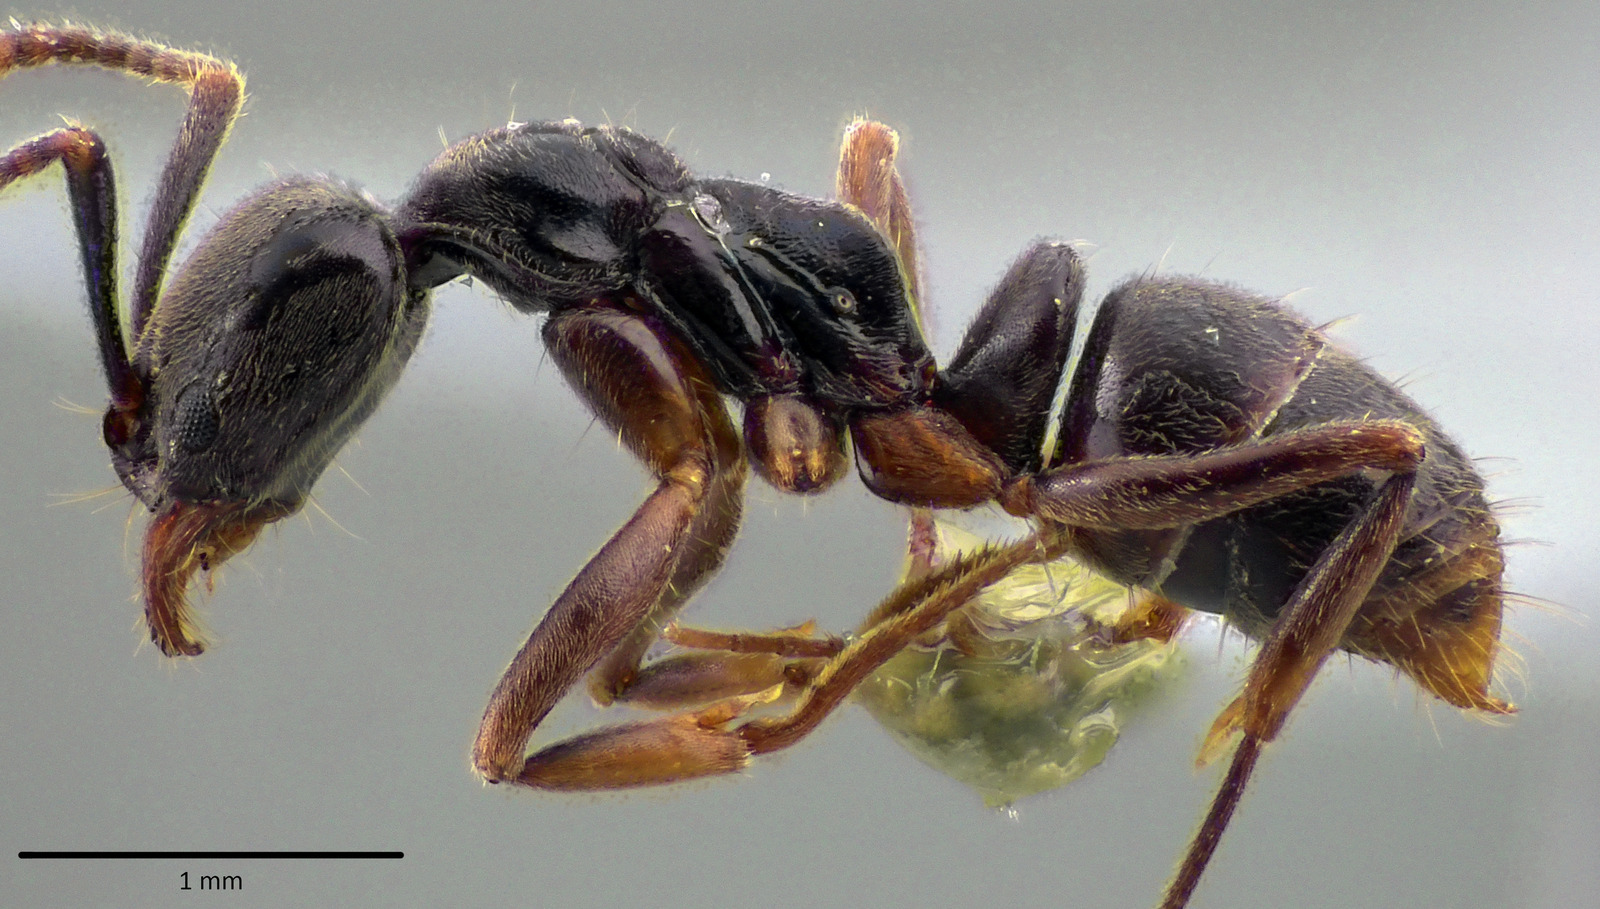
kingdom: Animalia
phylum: Arthropoda
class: Insecta
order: Hymenoptera
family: Formicidae
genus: Pachycondyla
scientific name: Pachycondyla chinensis
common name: Asian needle ant
